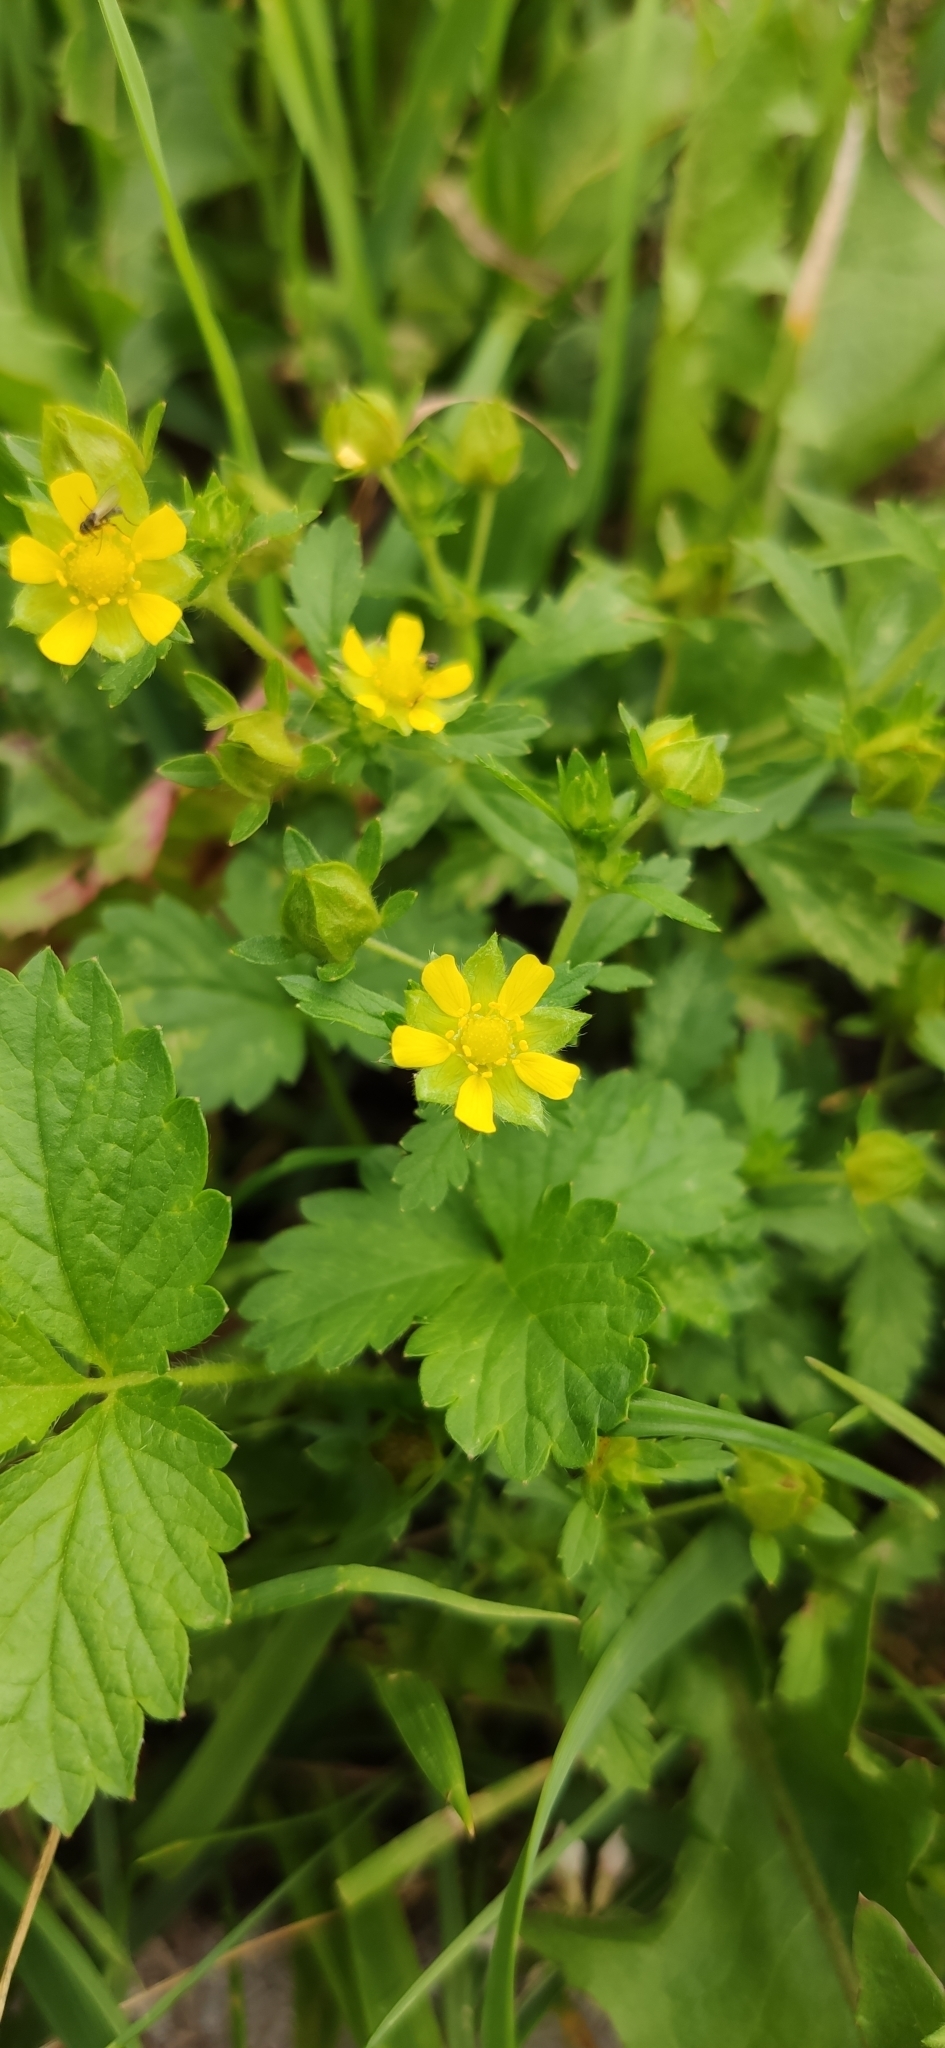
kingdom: Plantae
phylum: Tracheophyta
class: Magnoliopsida
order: Rosales
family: Rosaceae
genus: Potentilla
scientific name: Potentilla norvegica
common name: Ternate-leaved cinquefoil
